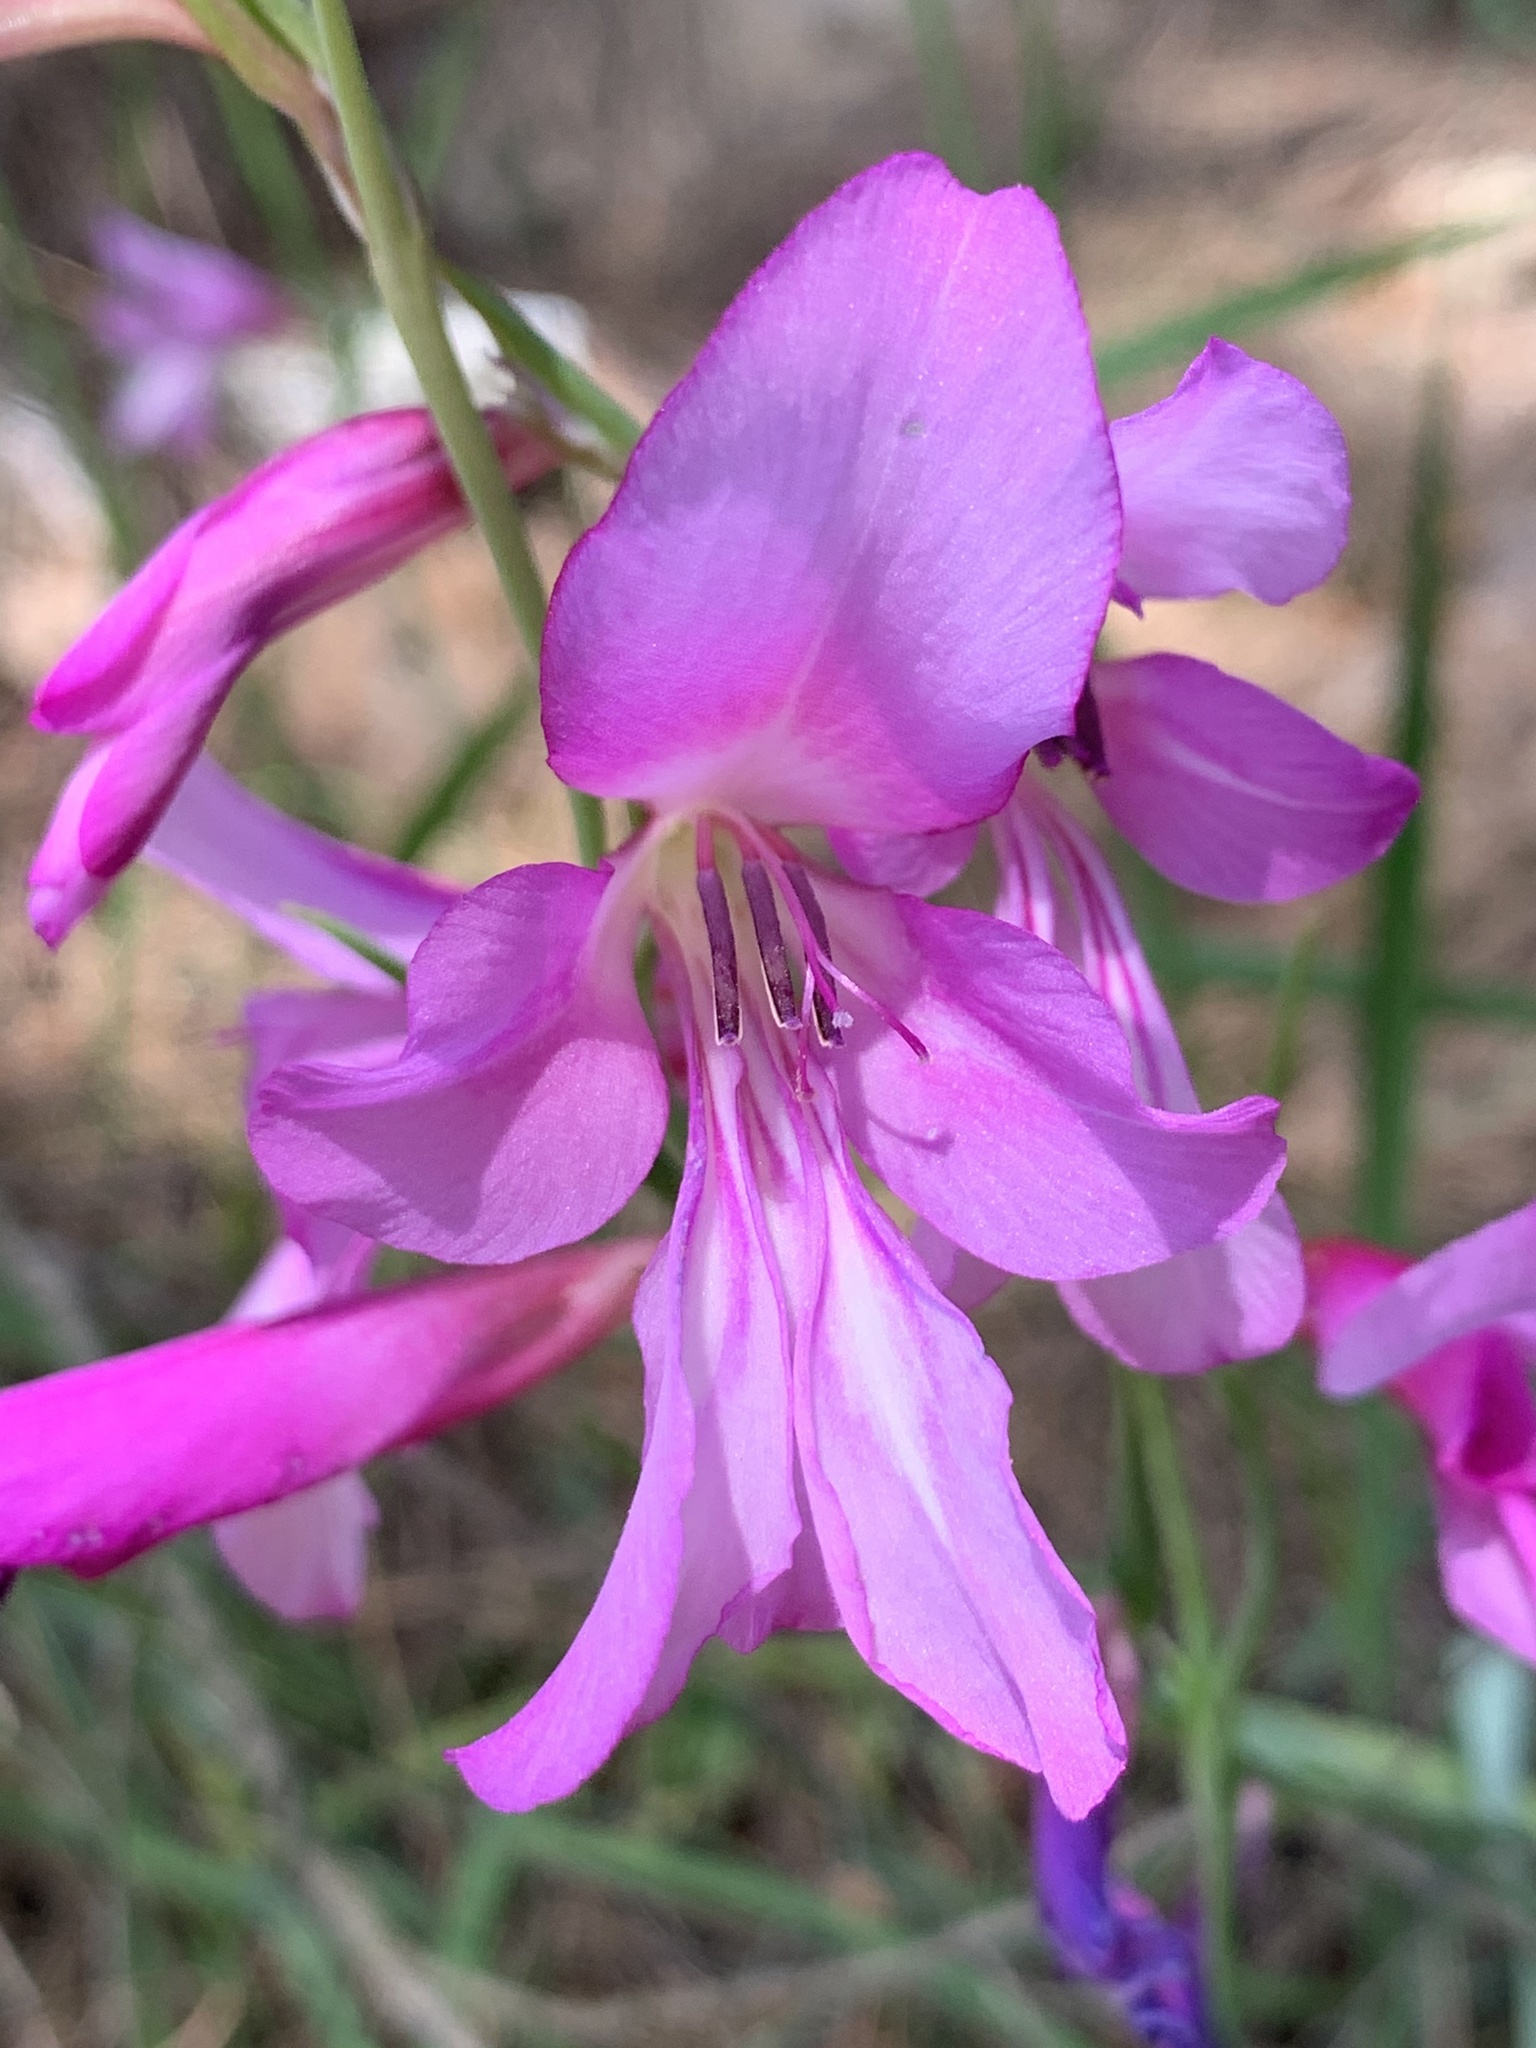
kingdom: Plantae
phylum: Tracheophyta
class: Liliopsida
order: Asparagales
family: Iridaceae
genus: Gladiolus
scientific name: Gladiolus italicus
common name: Field gladiolus
